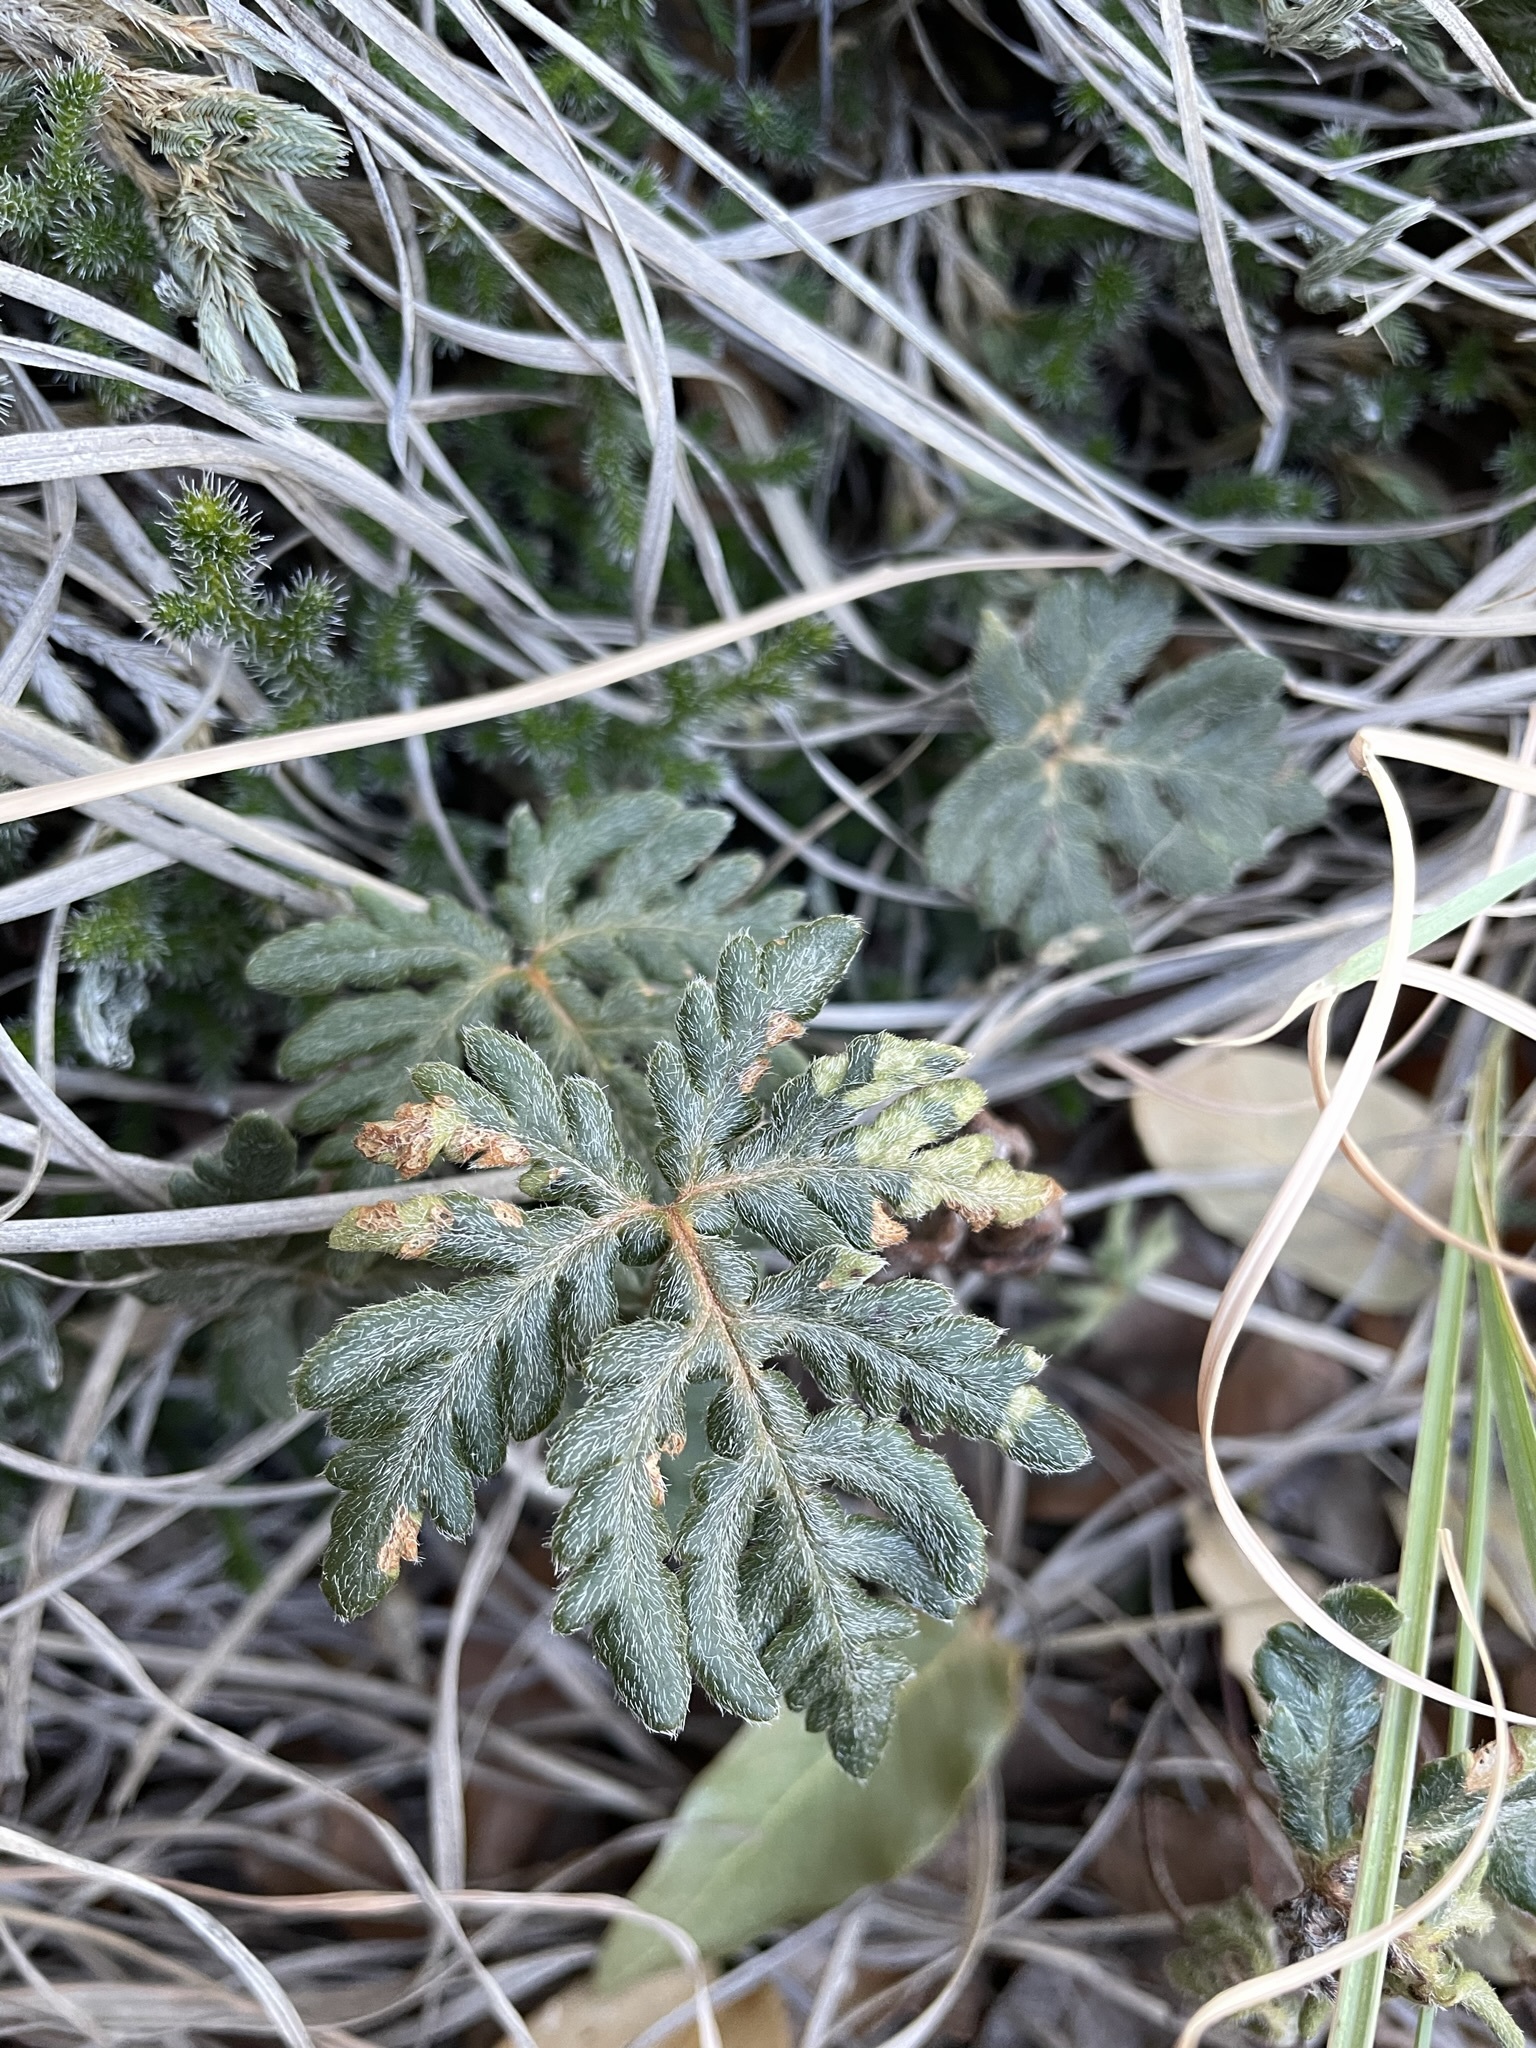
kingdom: Plantae
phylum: Tracheophyta
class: Polypodiopsida
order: Polypodiales
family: Pteridaceae
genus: Bommeria
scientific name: Bommeria hispida
